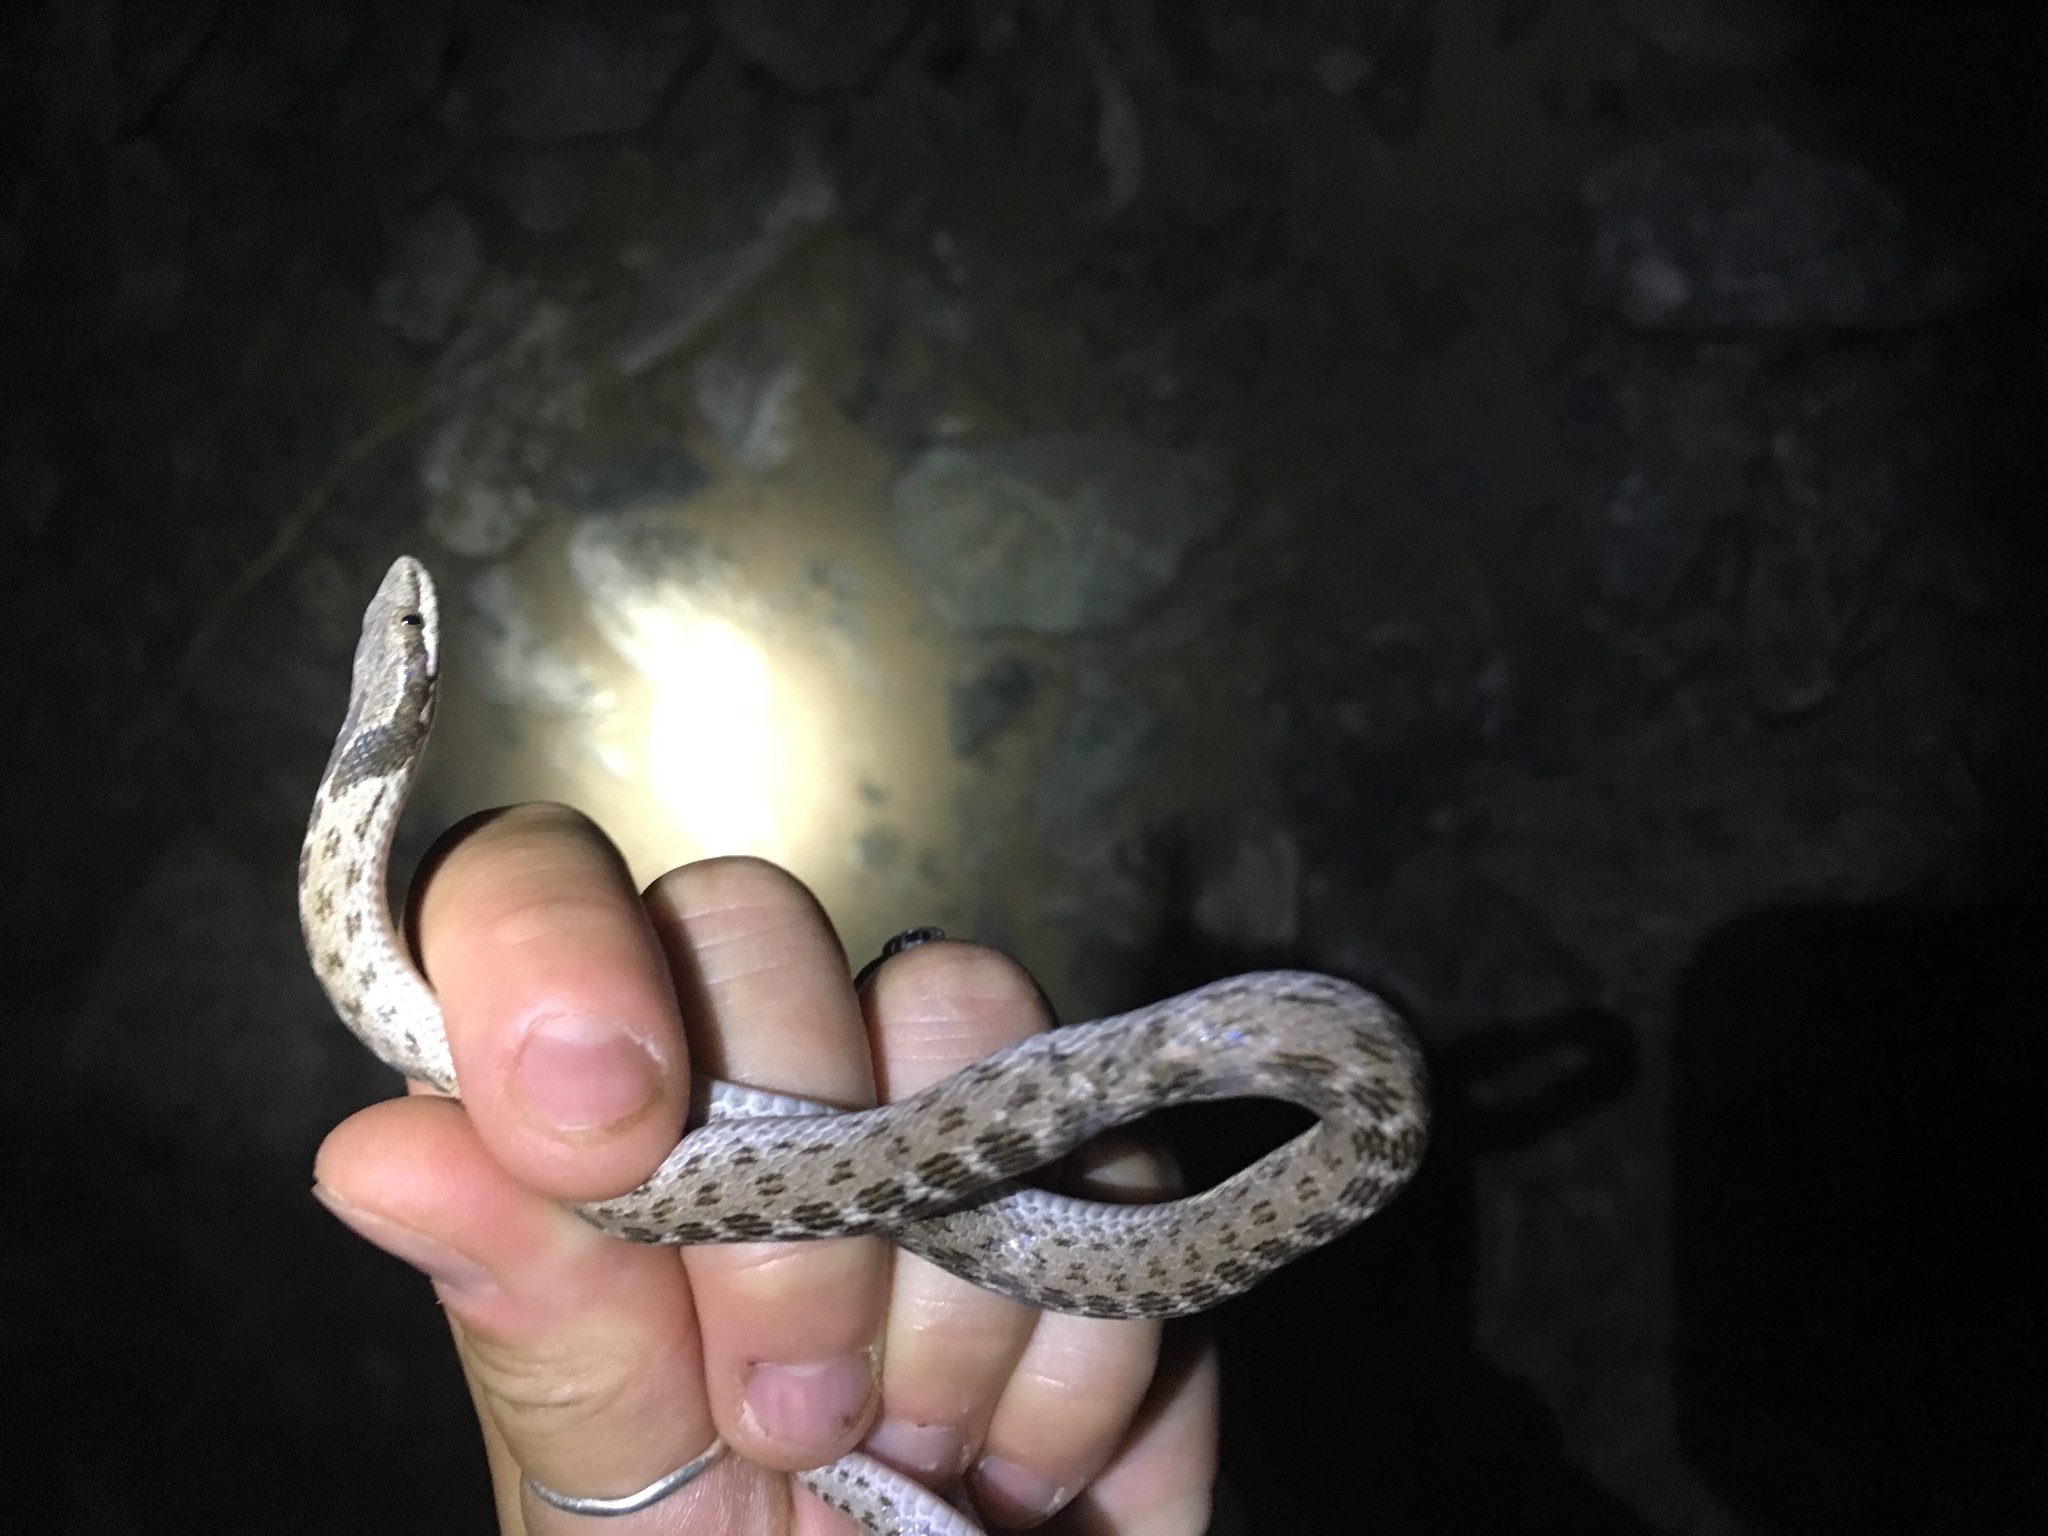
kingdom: Animalia
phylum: Chordata
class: Squamata
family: Colubridae
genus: Hypsiglena
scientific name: Hypsiglena chlorophaea
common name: Desert nightsnake
